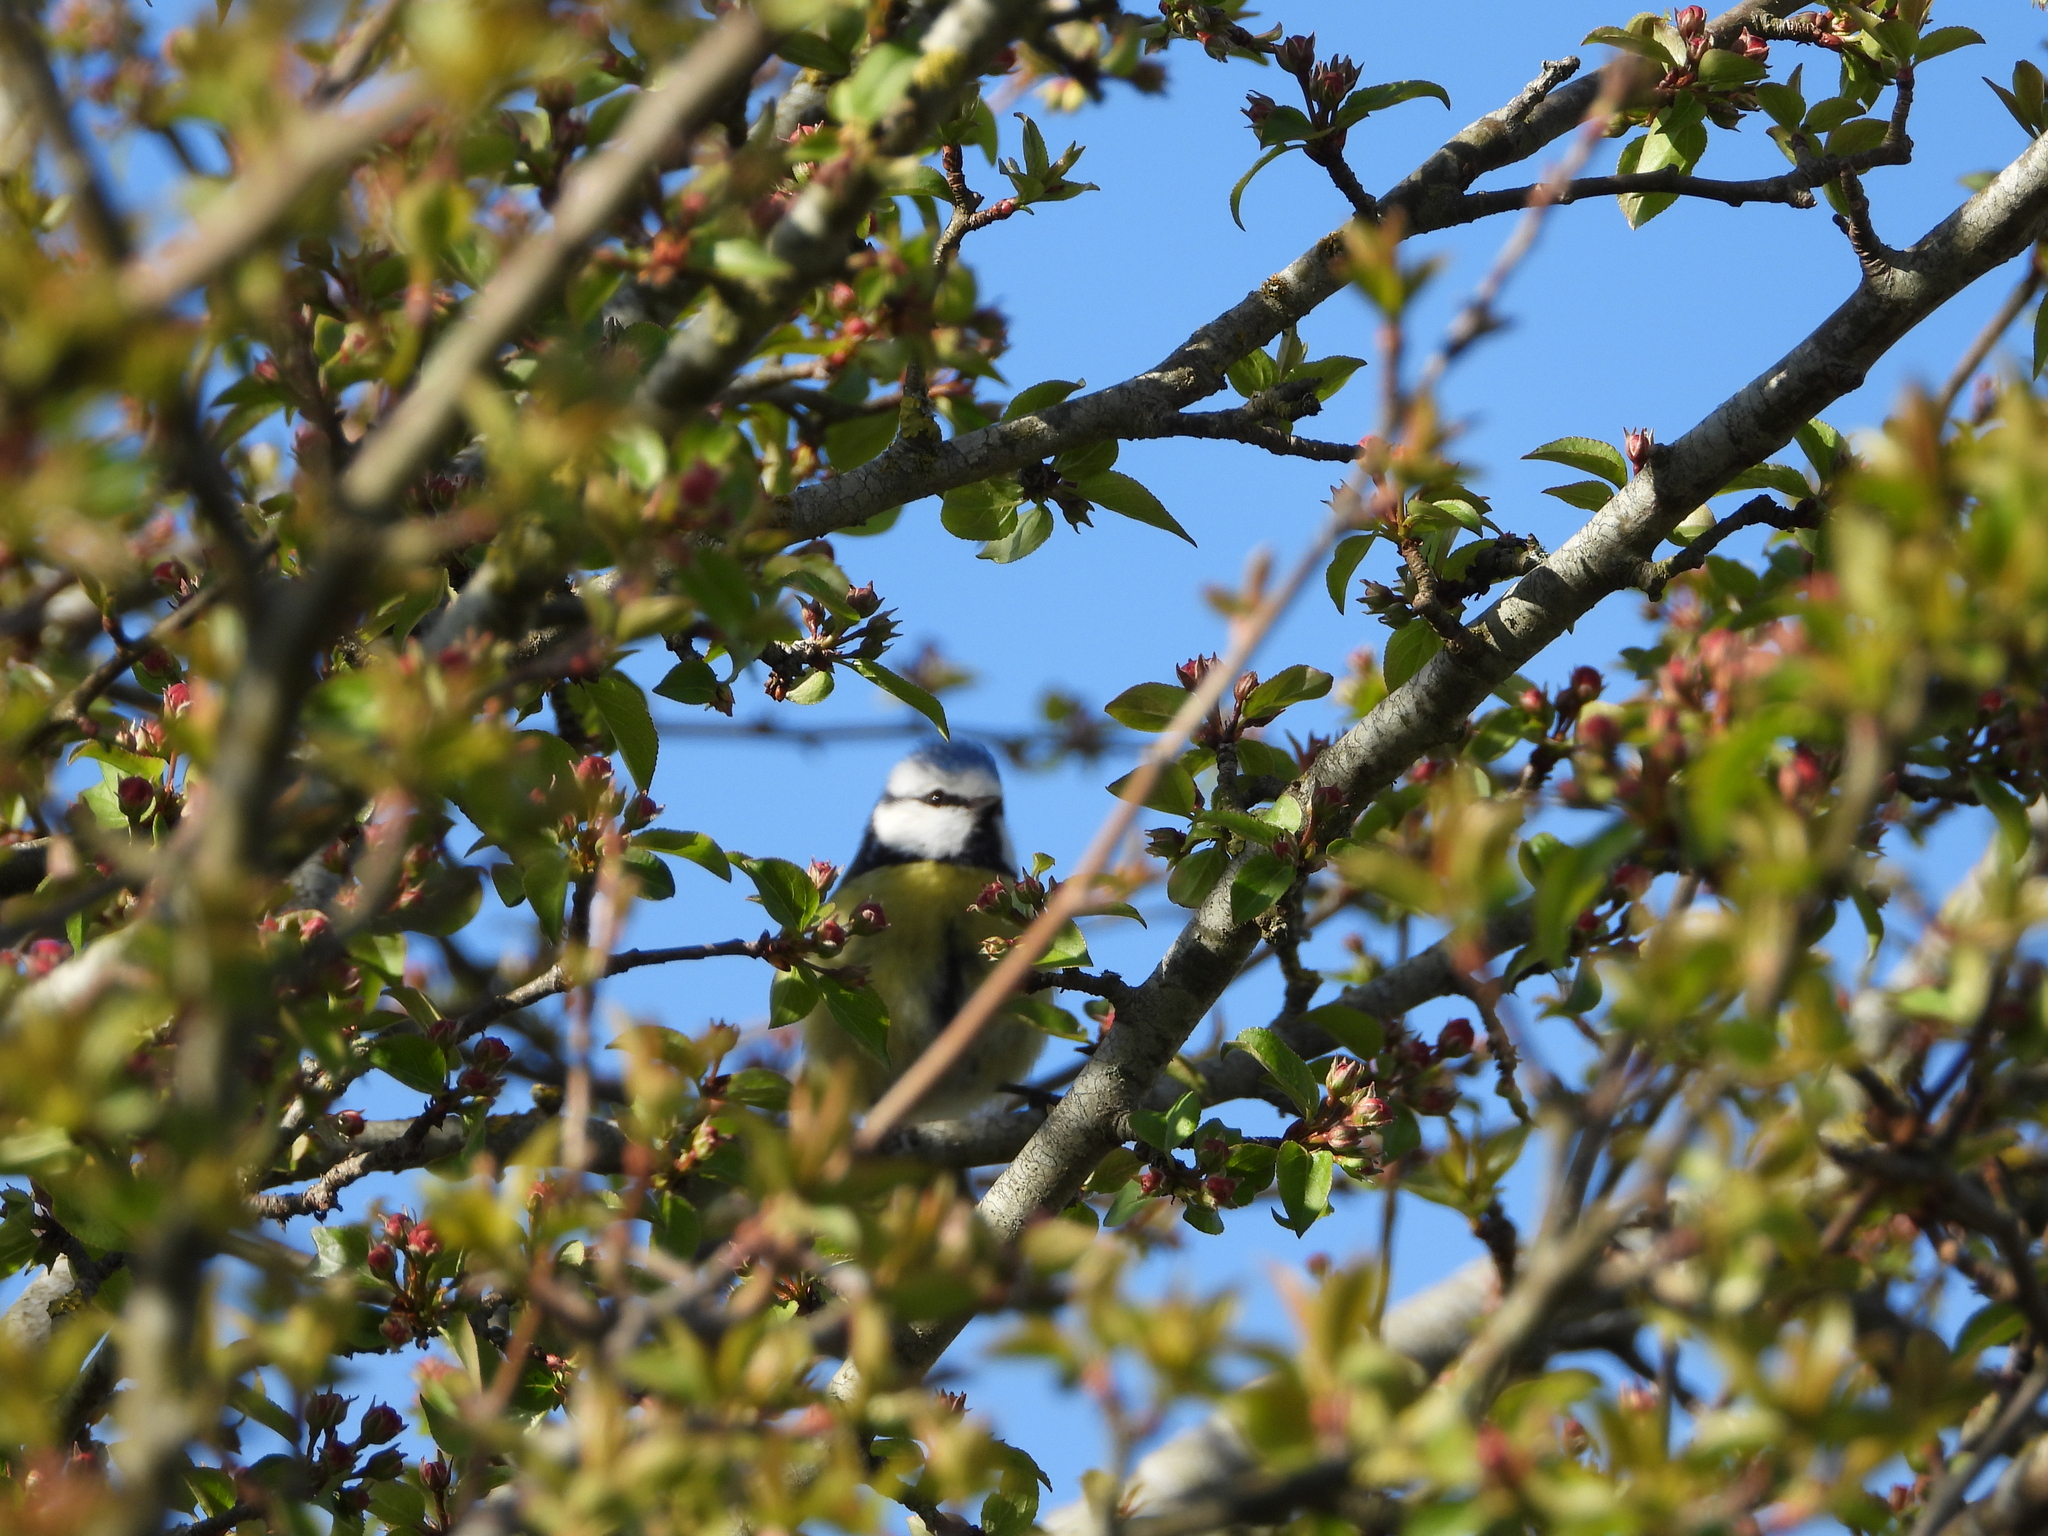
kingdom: Animalia
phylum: Chordata
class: Aves
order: Passeriformes
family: Paridae
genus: Cyanistes
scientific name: Cyanistes caeruleus
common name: Eurasian blue tit
